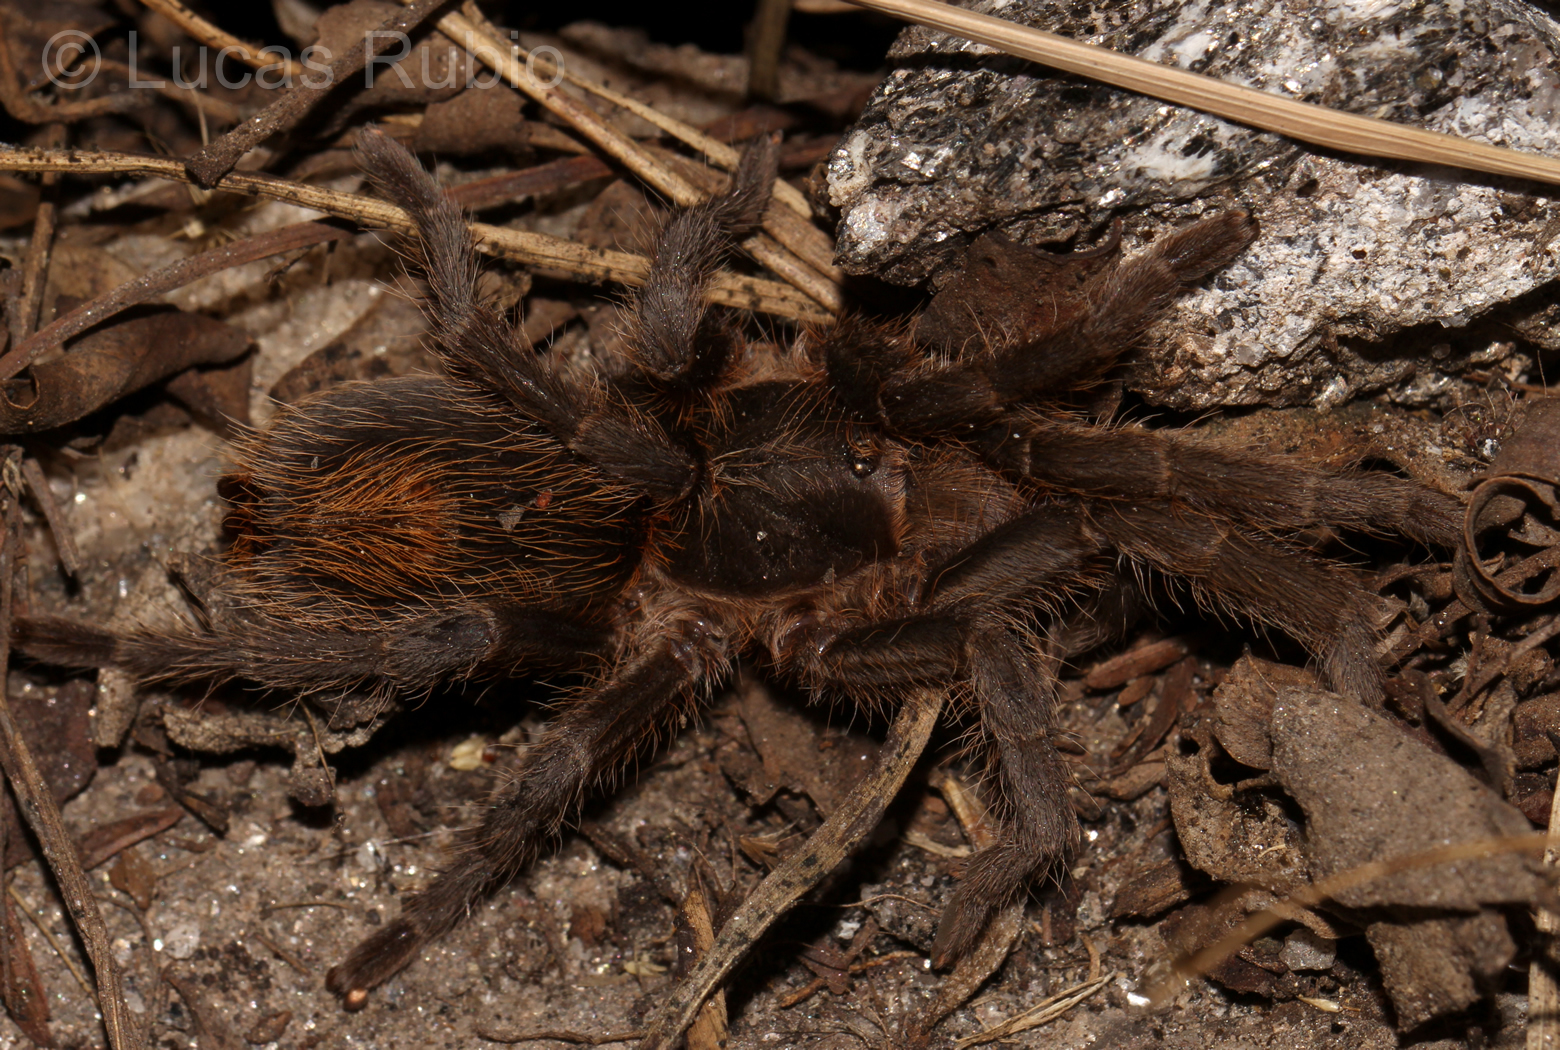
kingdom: Animalia
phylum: Arthropoda
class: Arachnida
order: Araneae
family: Theraphosidae
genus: Plesiopelma
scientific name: Plesiopelma longisternale
